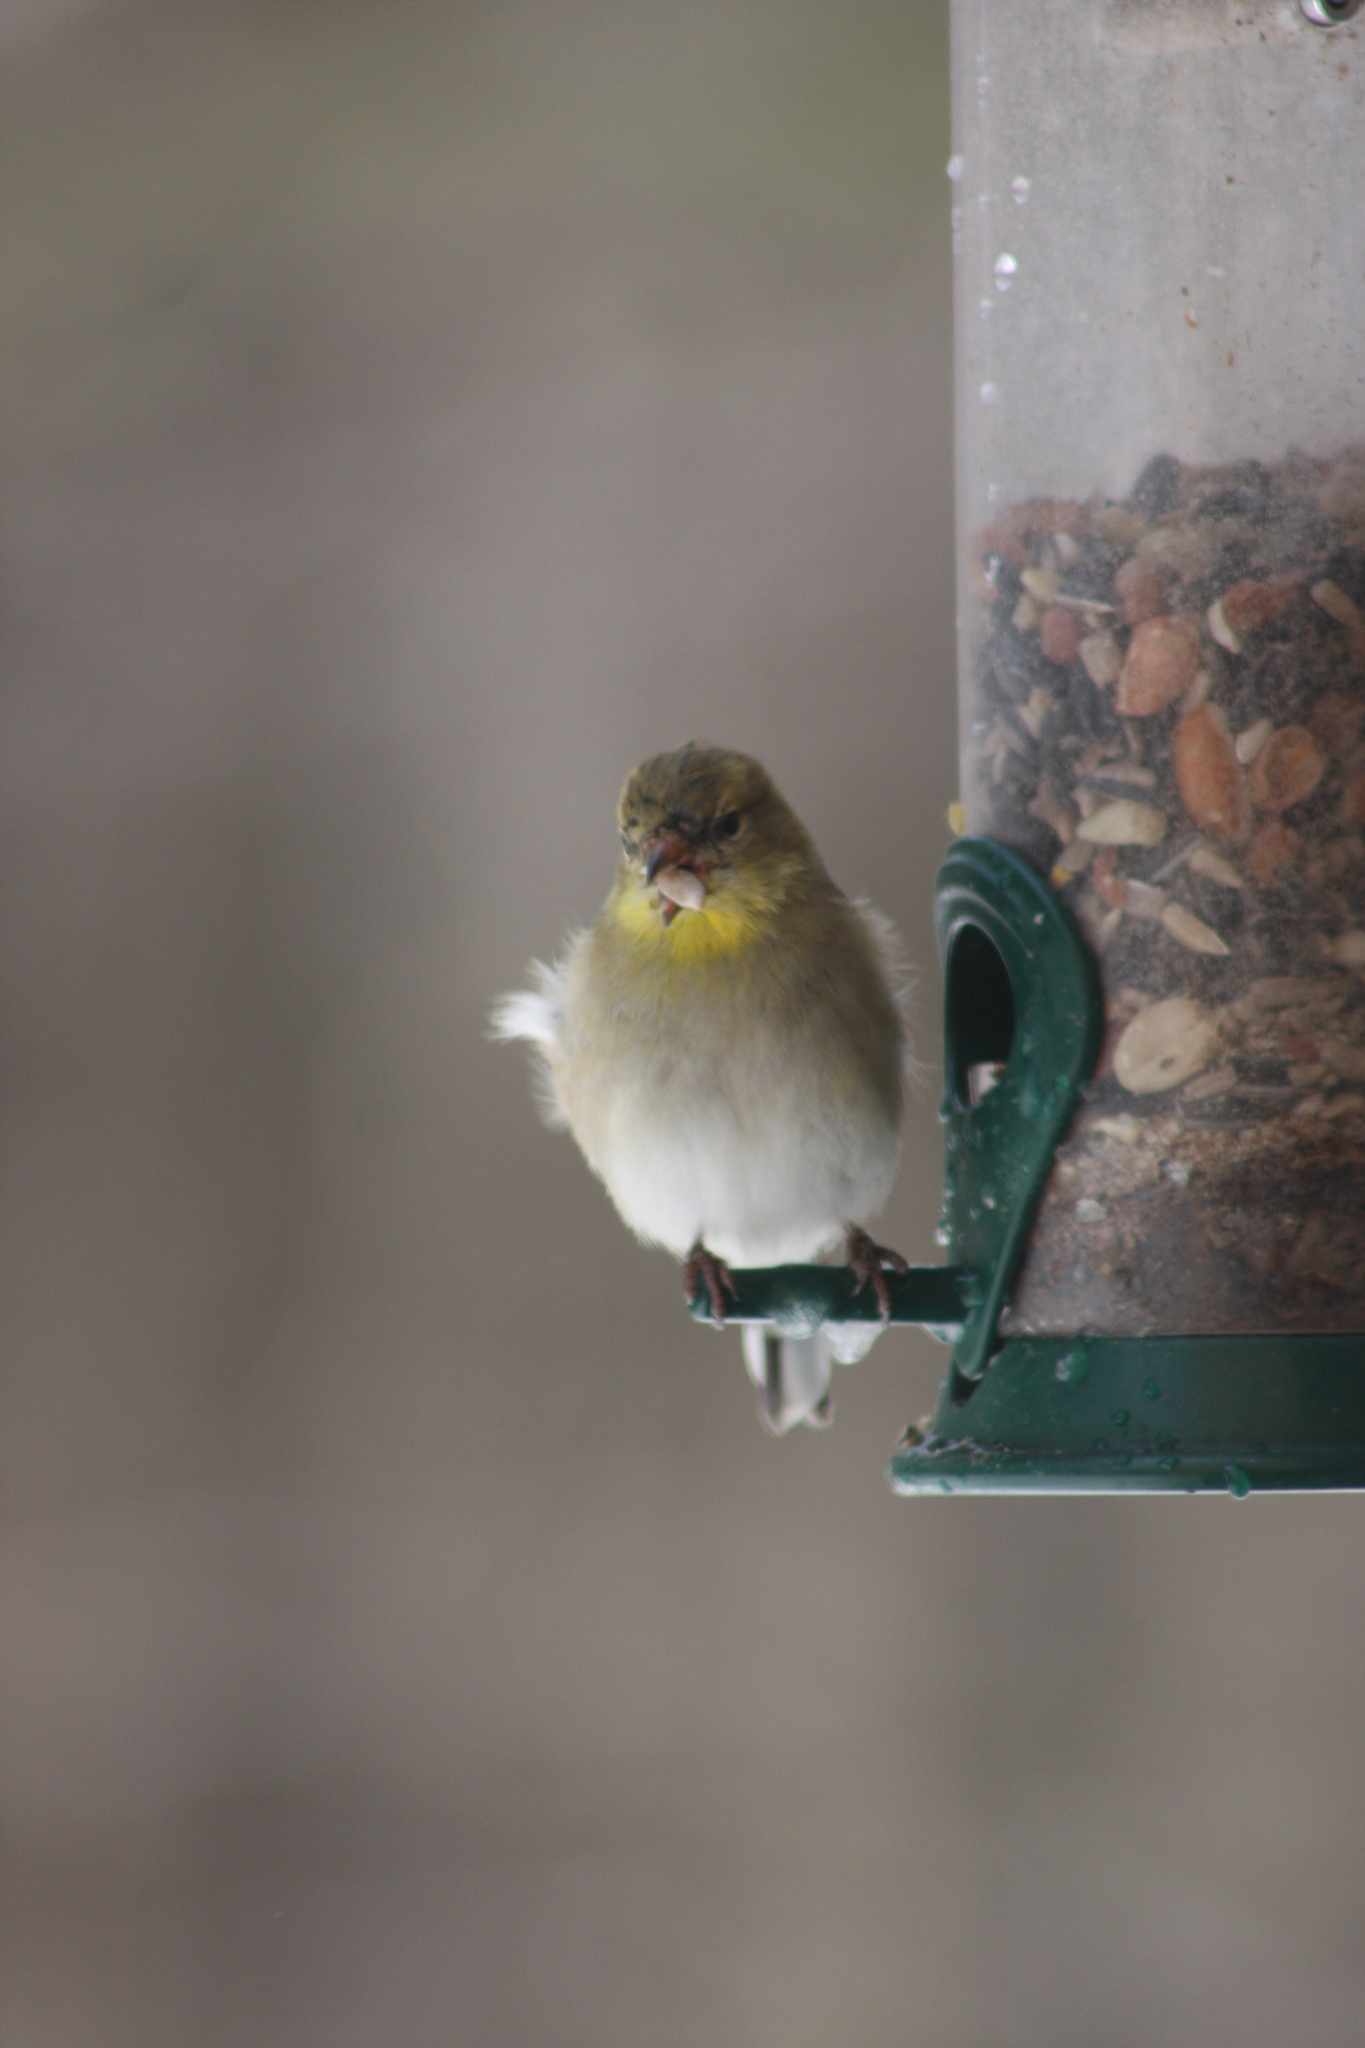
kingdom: Animalia
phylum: Chordata
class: Aves
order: Passeriformes
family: Fringillidae
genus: Spinus
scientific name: Spinus tristis
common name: American goldfinch
